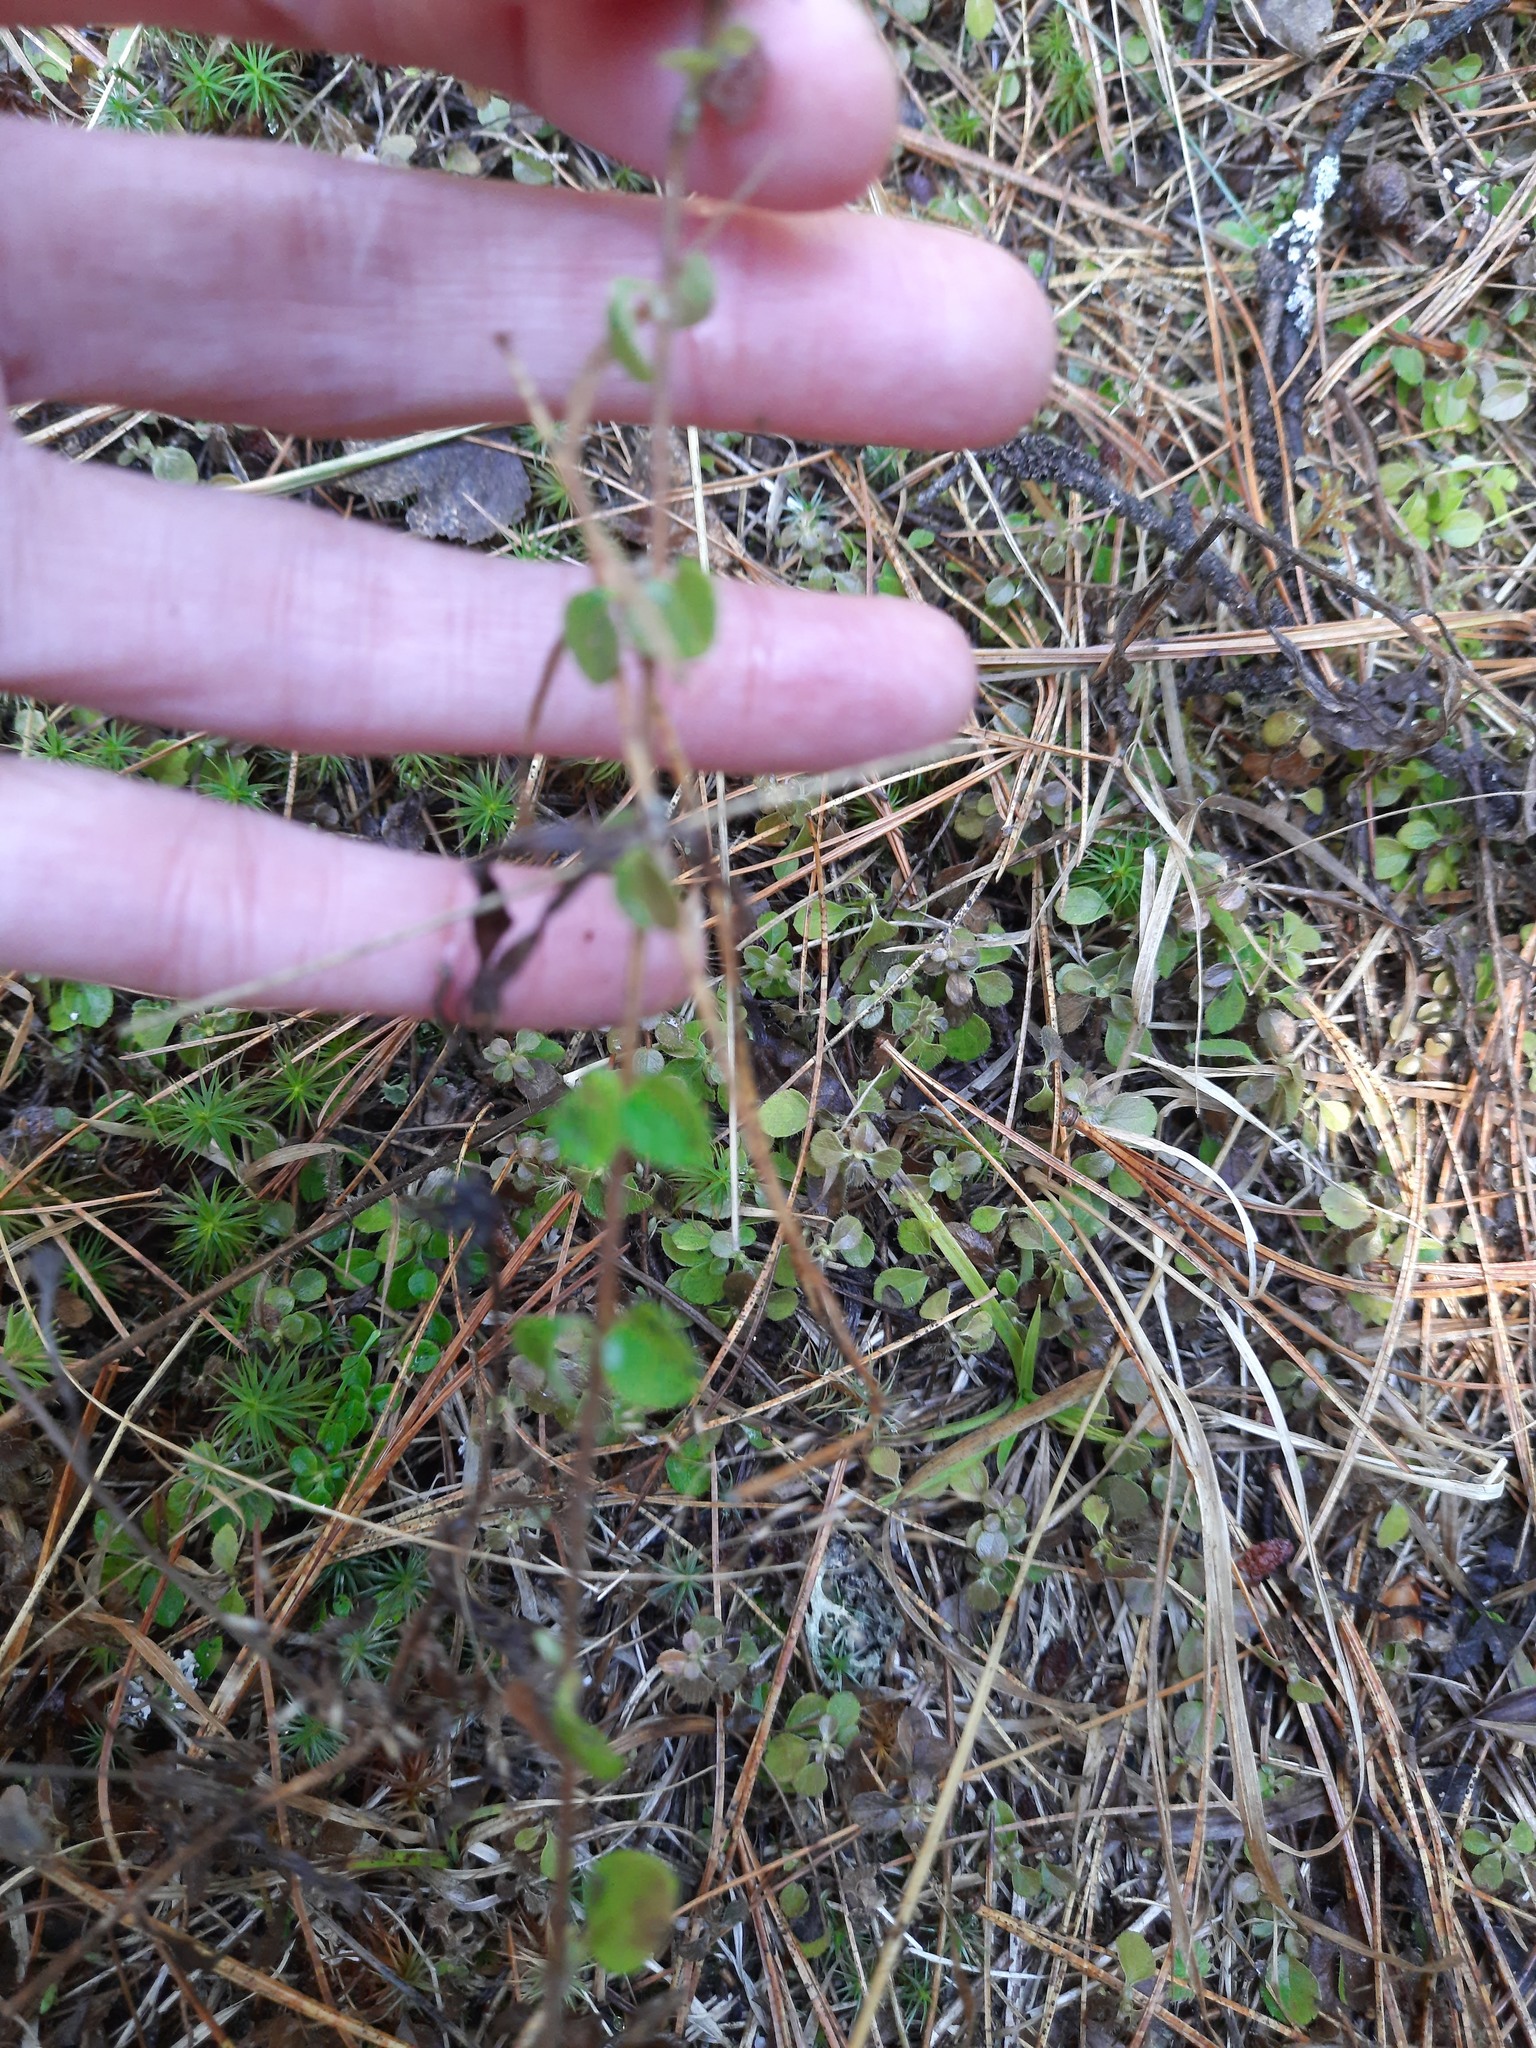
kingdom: Plantae
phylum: Tracheophyta
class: Magnoliopsida
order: Dipsacales
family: Caprifoliaceae
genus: Linnaea
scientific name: Linnaea borealis
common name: Twinflower
